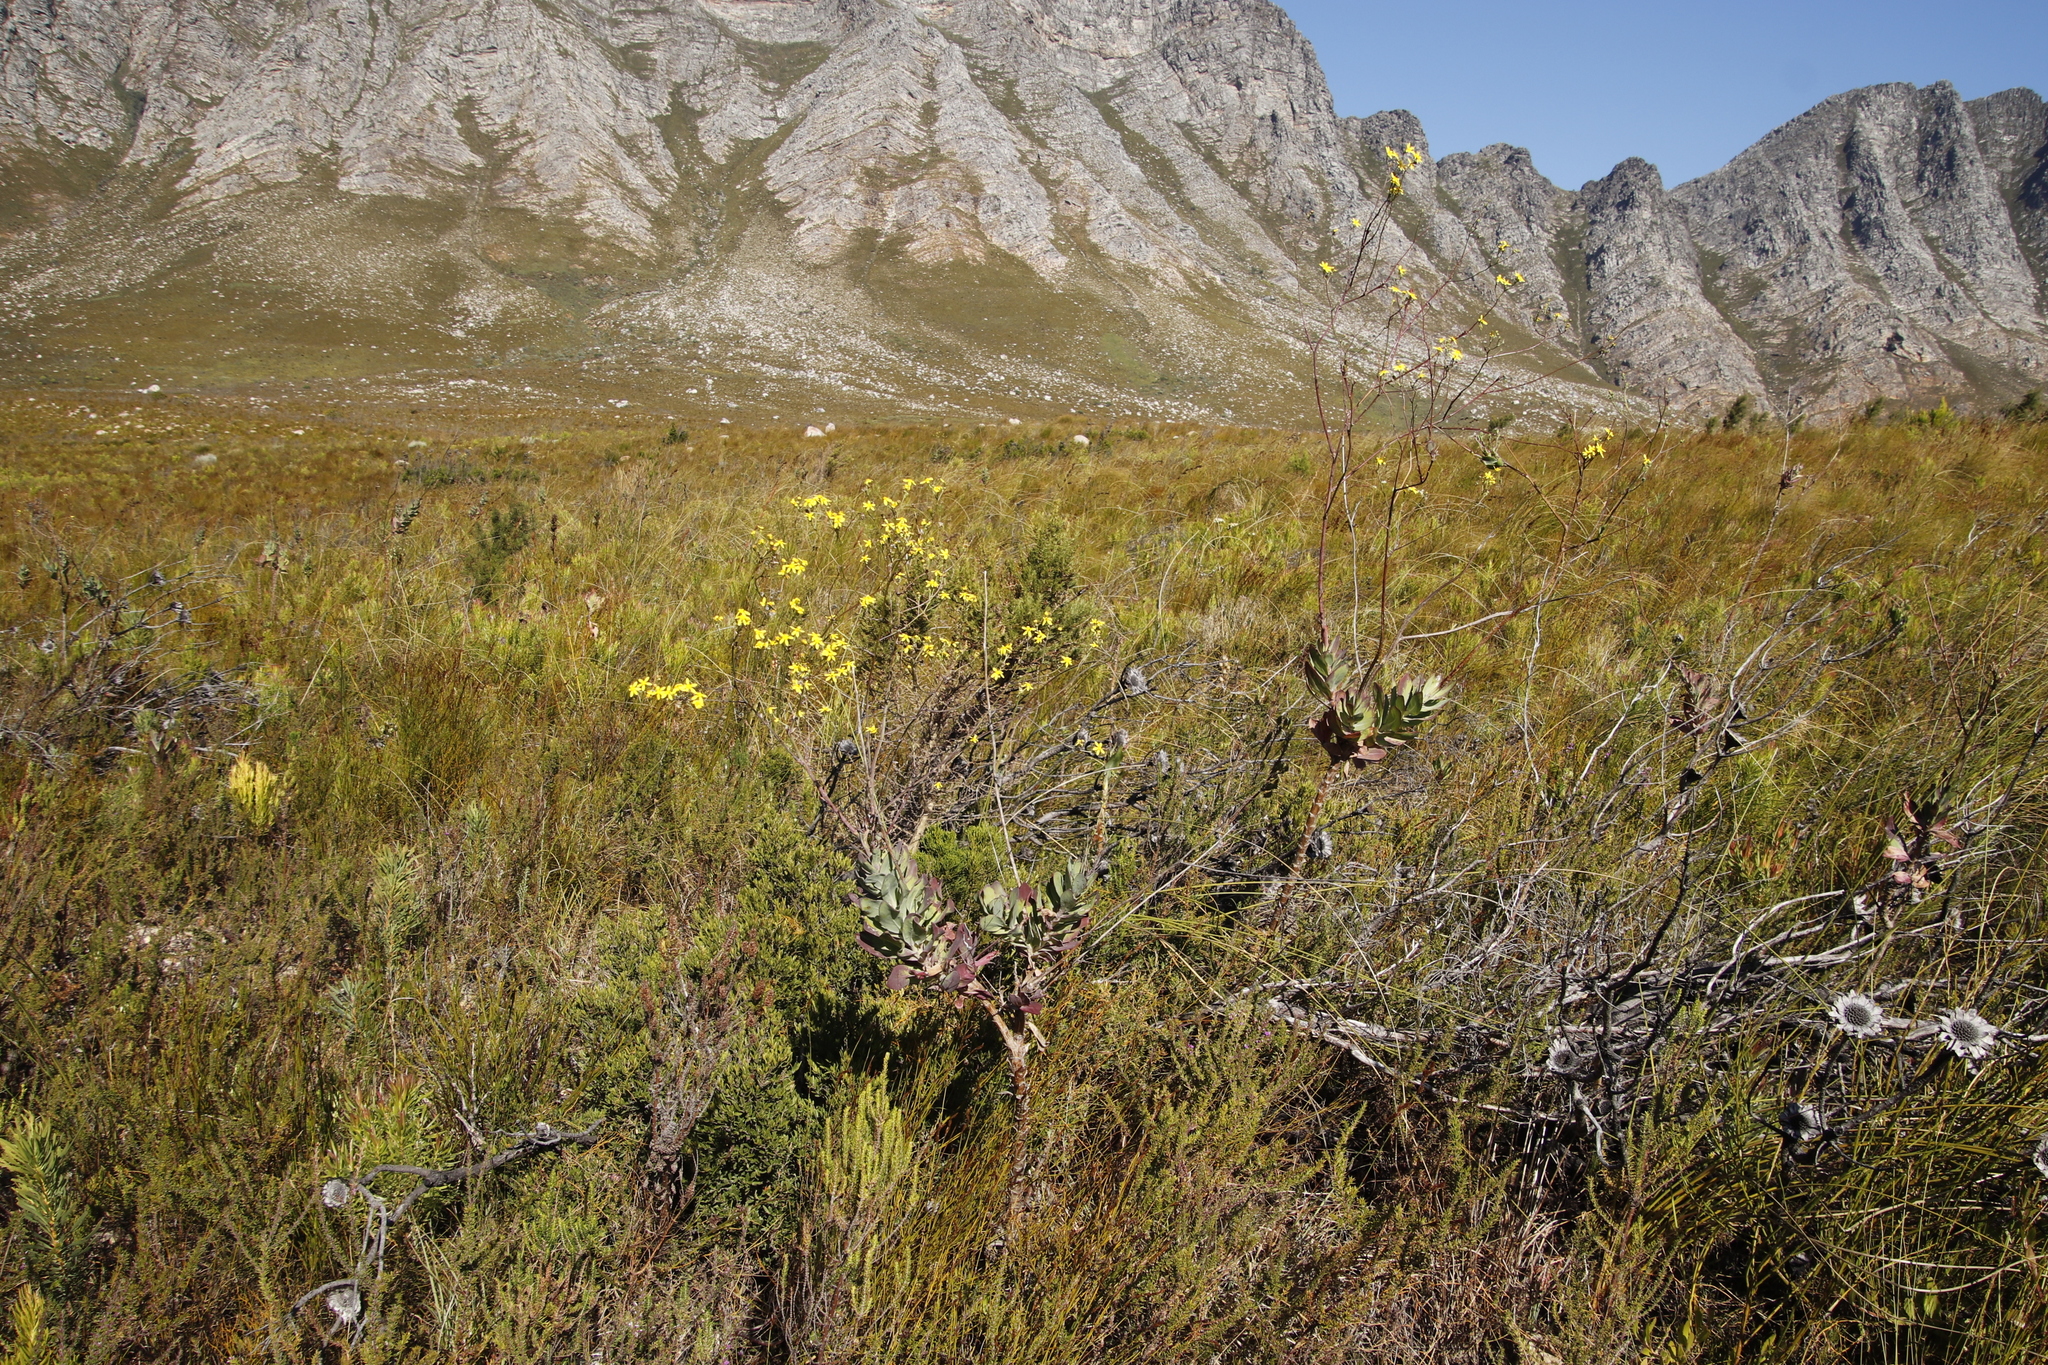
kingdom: Plantae
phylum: Tracheophyta
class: Magnoliopsida
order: Asterales
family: Asteraceae
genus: Othonna
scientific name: Othonna quinquedentata
